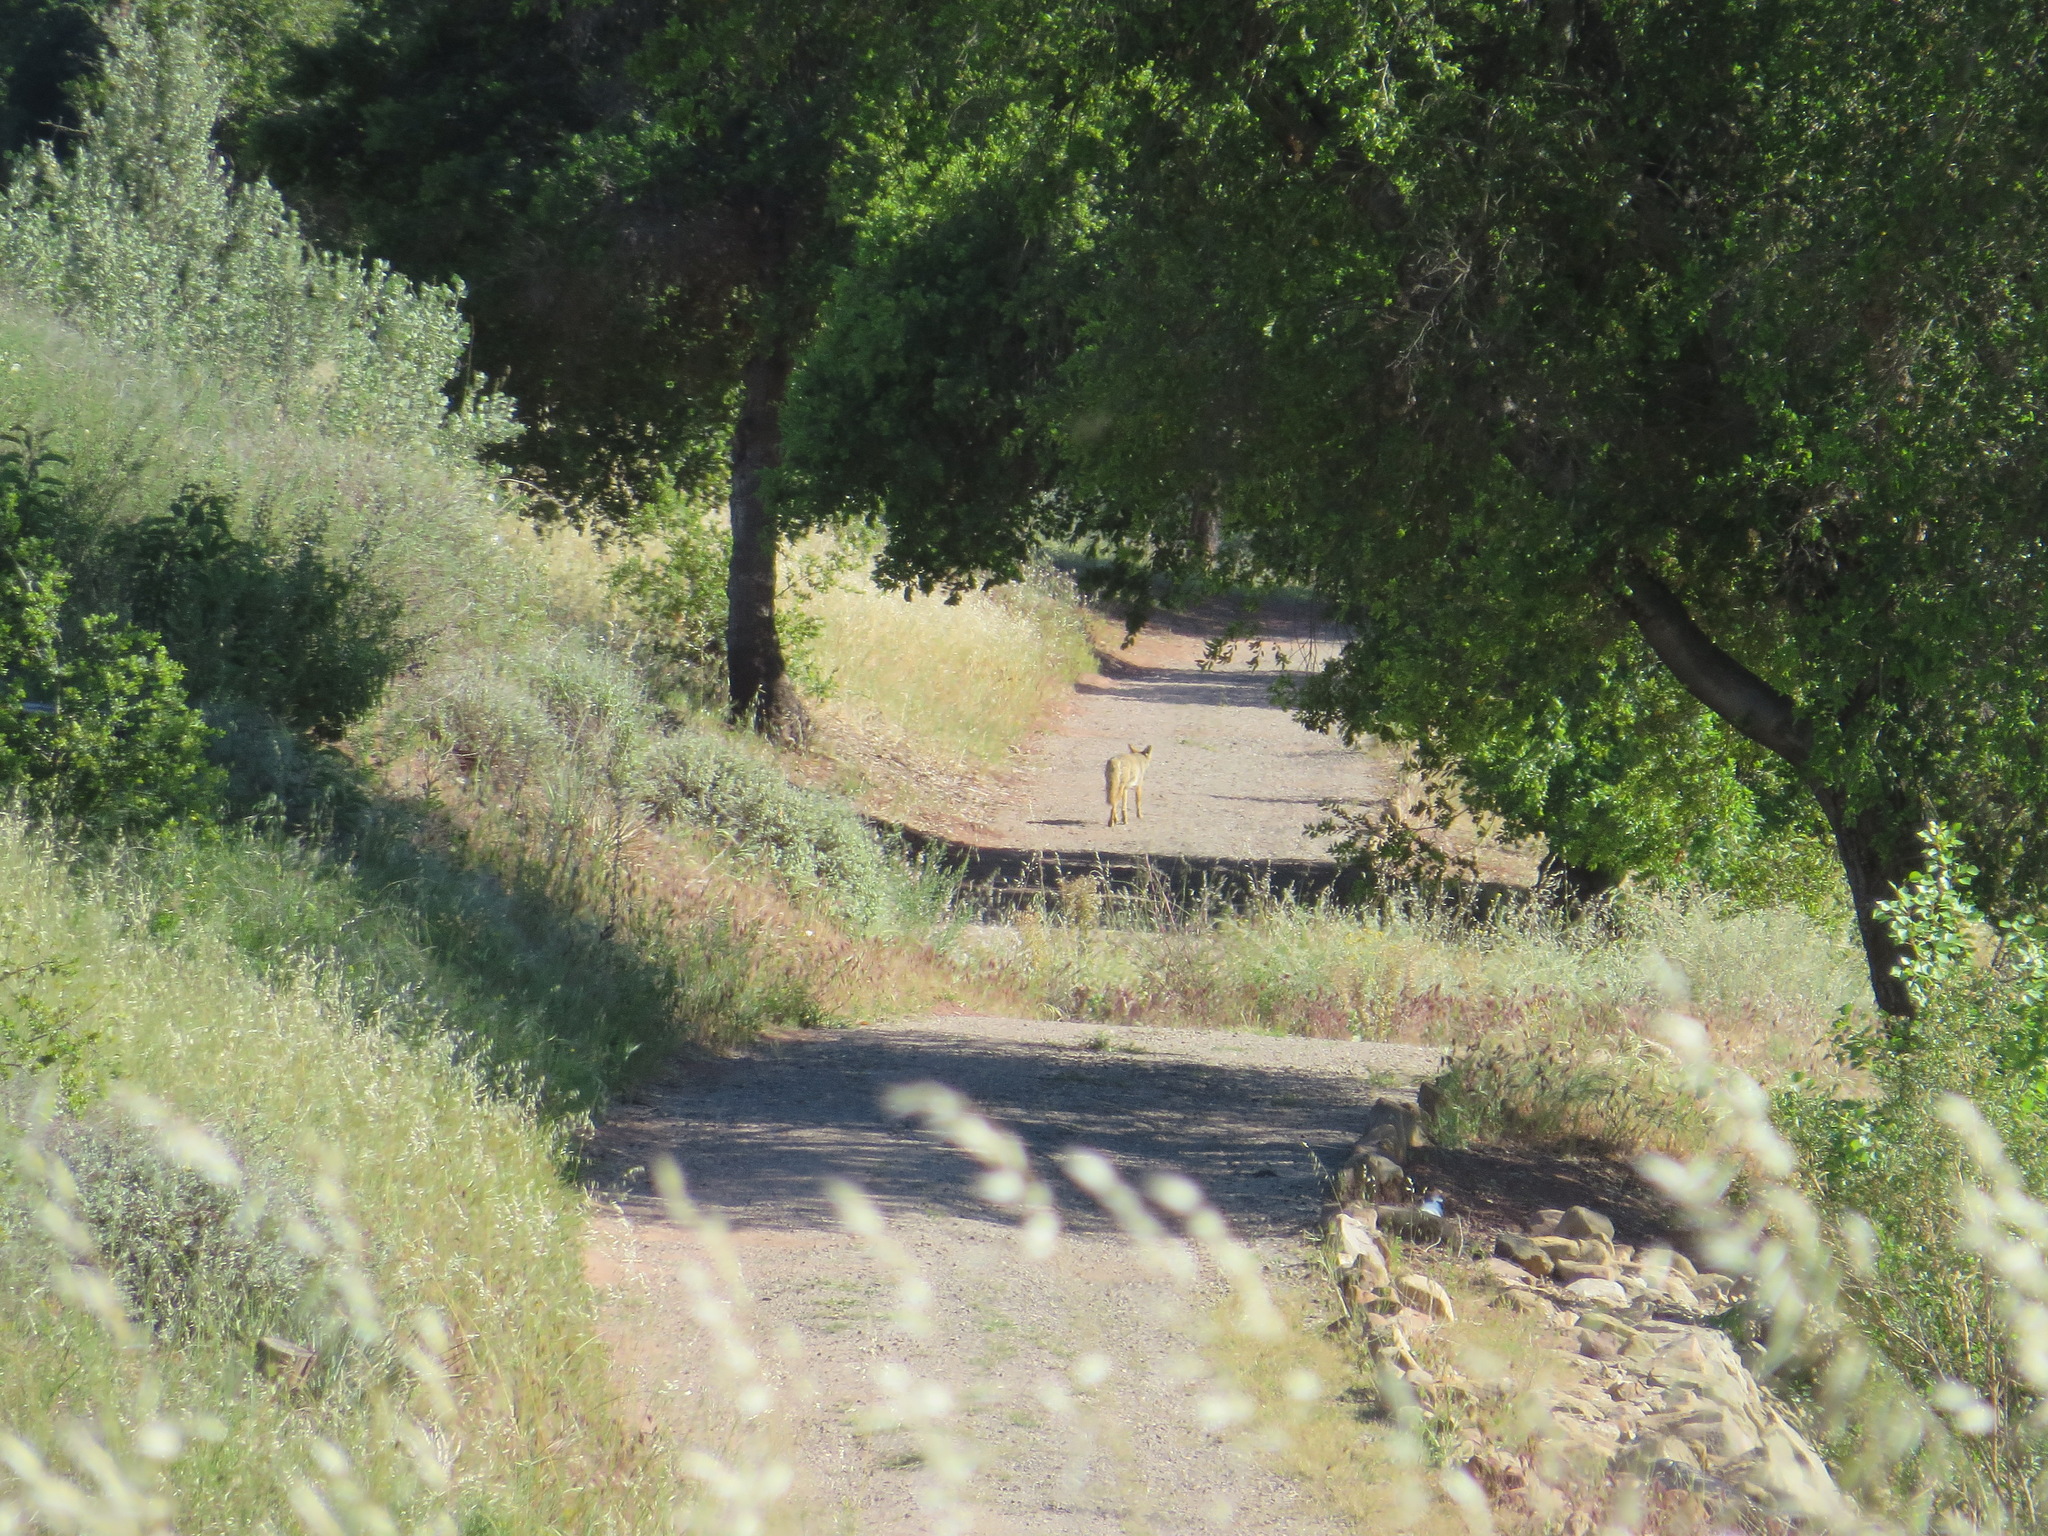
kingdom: Animalia
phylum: Chordata
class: Mammalia
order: Carnivora
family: Canidae
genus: Canis
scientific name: Canis latrans
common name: Coyote
